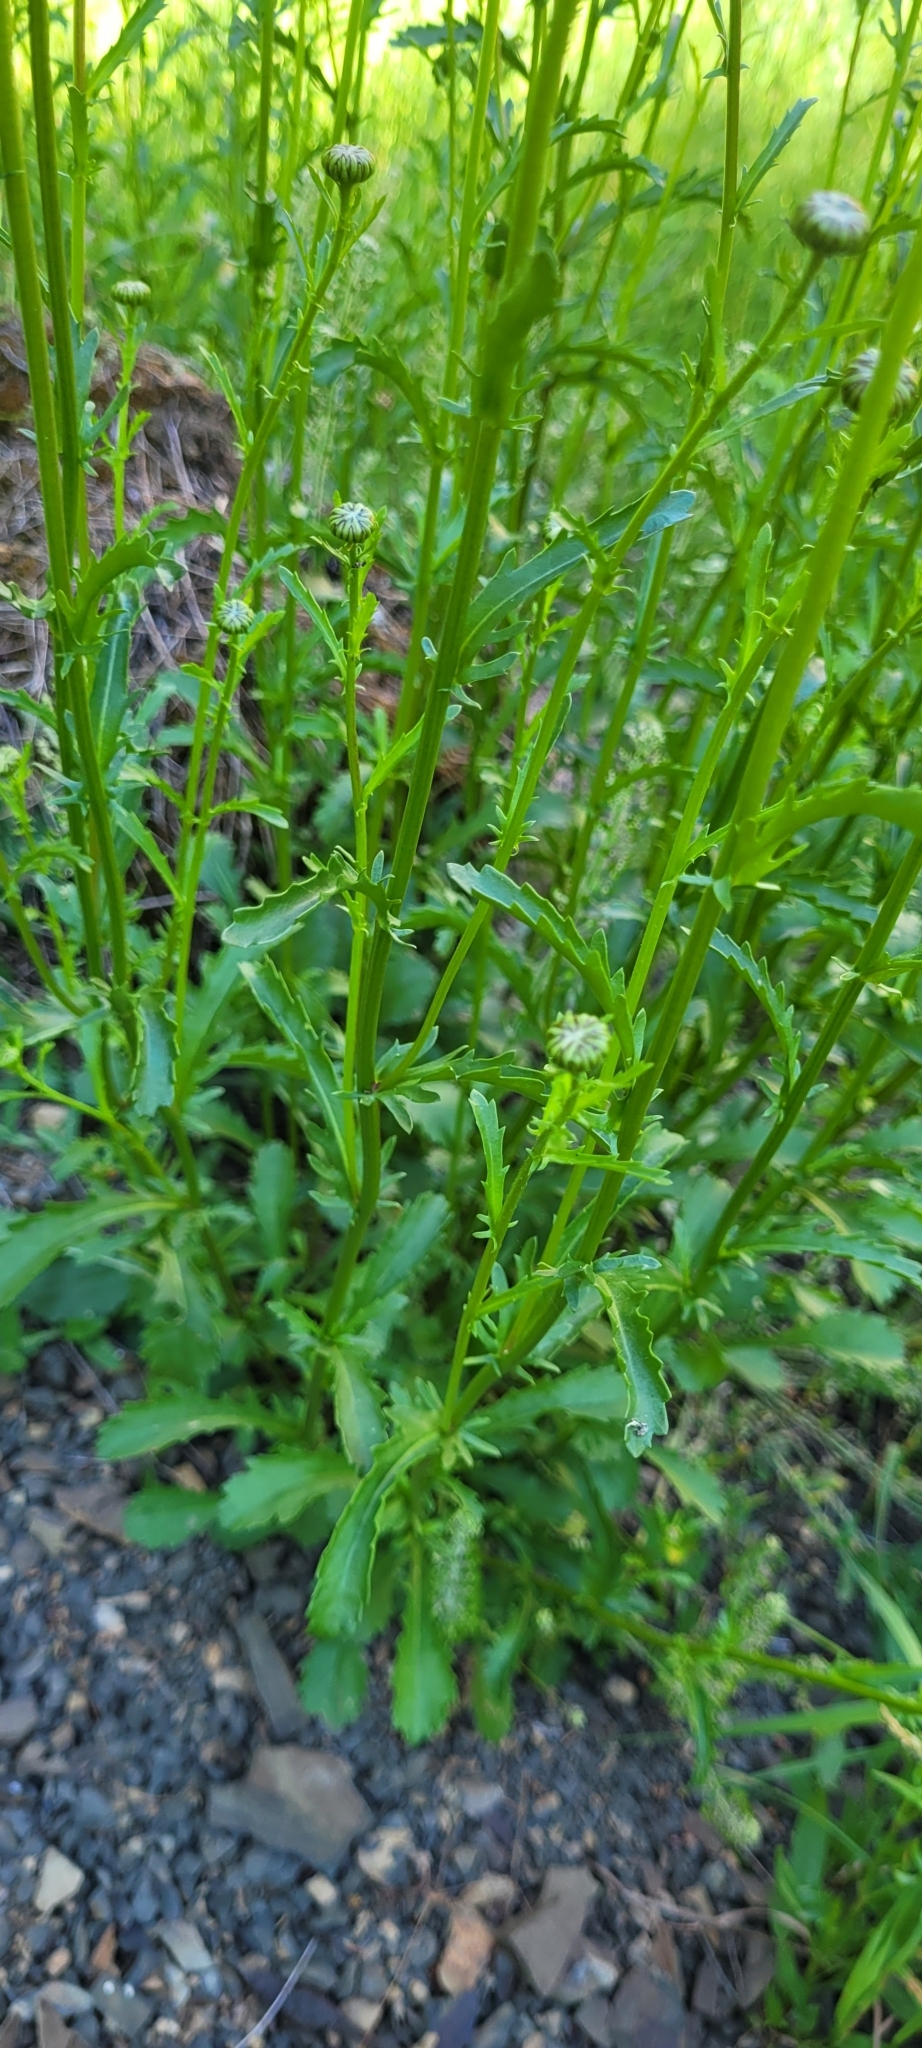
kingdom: Plantae
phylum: Tracheophyta
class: Magnoliopsida
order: Asterales
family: Asteraceae
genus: Leucanthemum
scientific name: Leucanthemum vulgare
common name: Oxeye daisy
